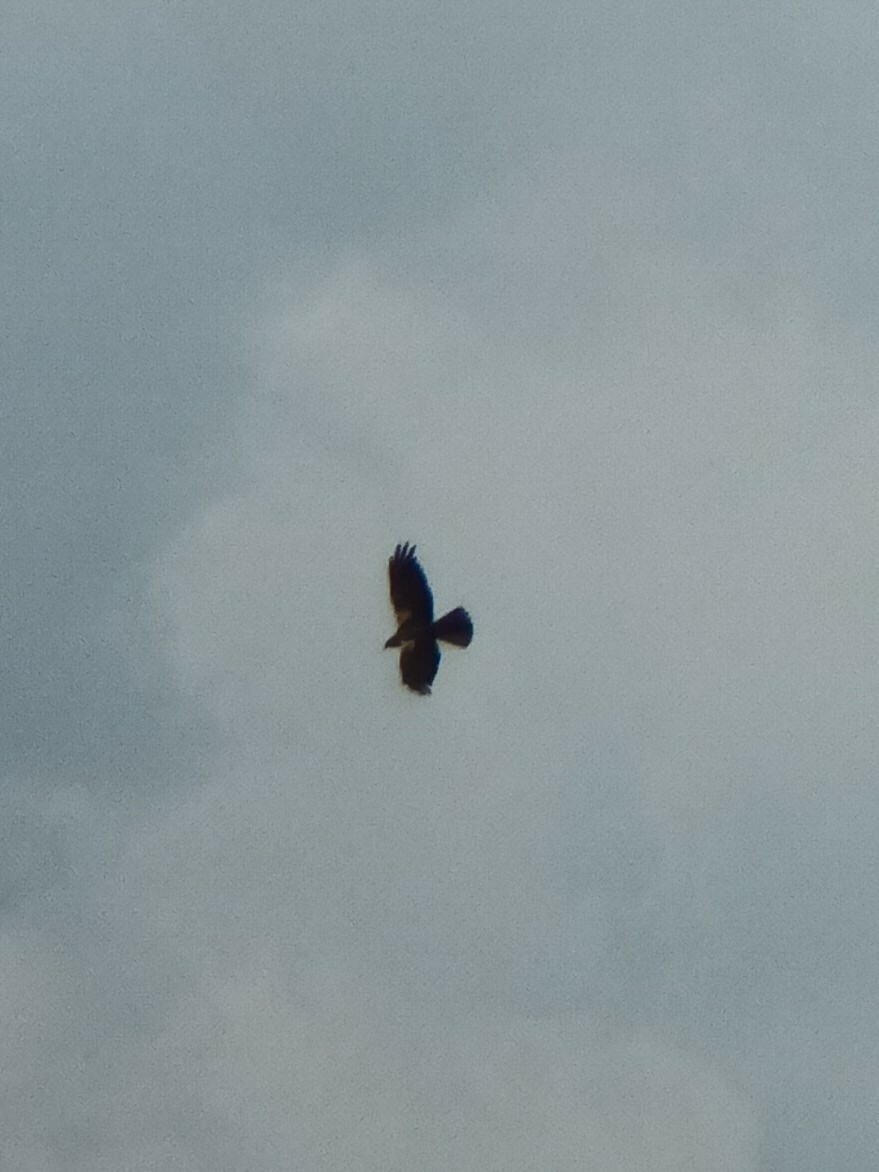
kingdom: Animalia
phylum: Chordata
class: Aves
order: Accipitriformes
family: Accipitridae
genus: Circus
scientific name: Circus aeruginosus
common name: Western marsh harrier
